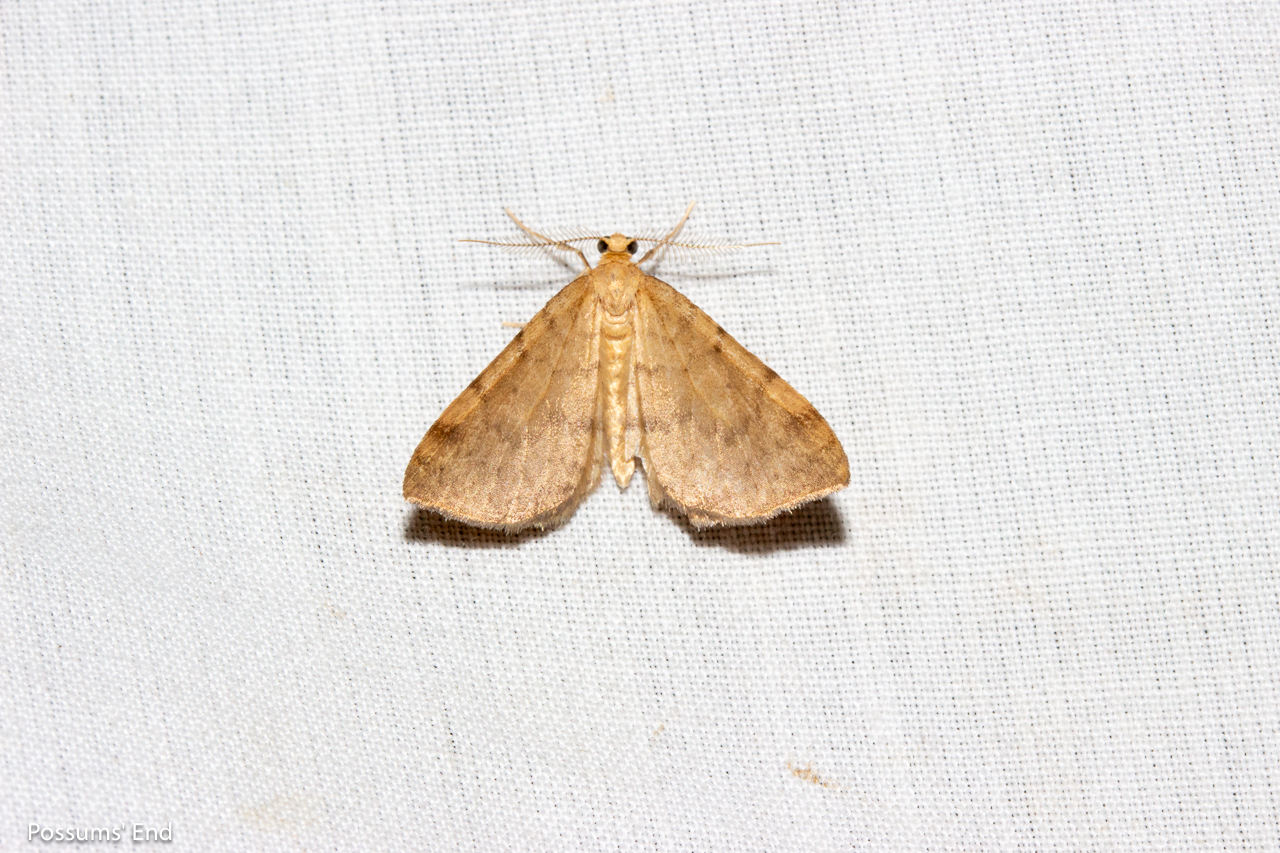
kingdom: Animalia
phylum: Arthropoda
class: Insecta
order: Lepidoptera
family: Geometridae
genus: Epiphryne
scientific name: Epiphryne undosata
